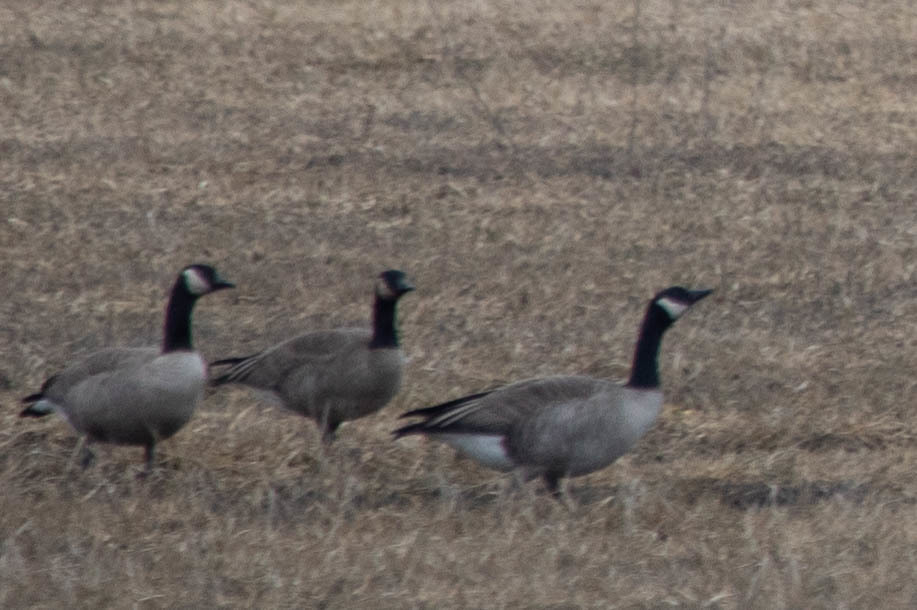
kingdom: Animalia
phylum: Chordata
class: Aves
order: Anseriformes
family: Anatidae
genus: Branta
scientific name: Branta hutchinsii
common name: Cackling goose
